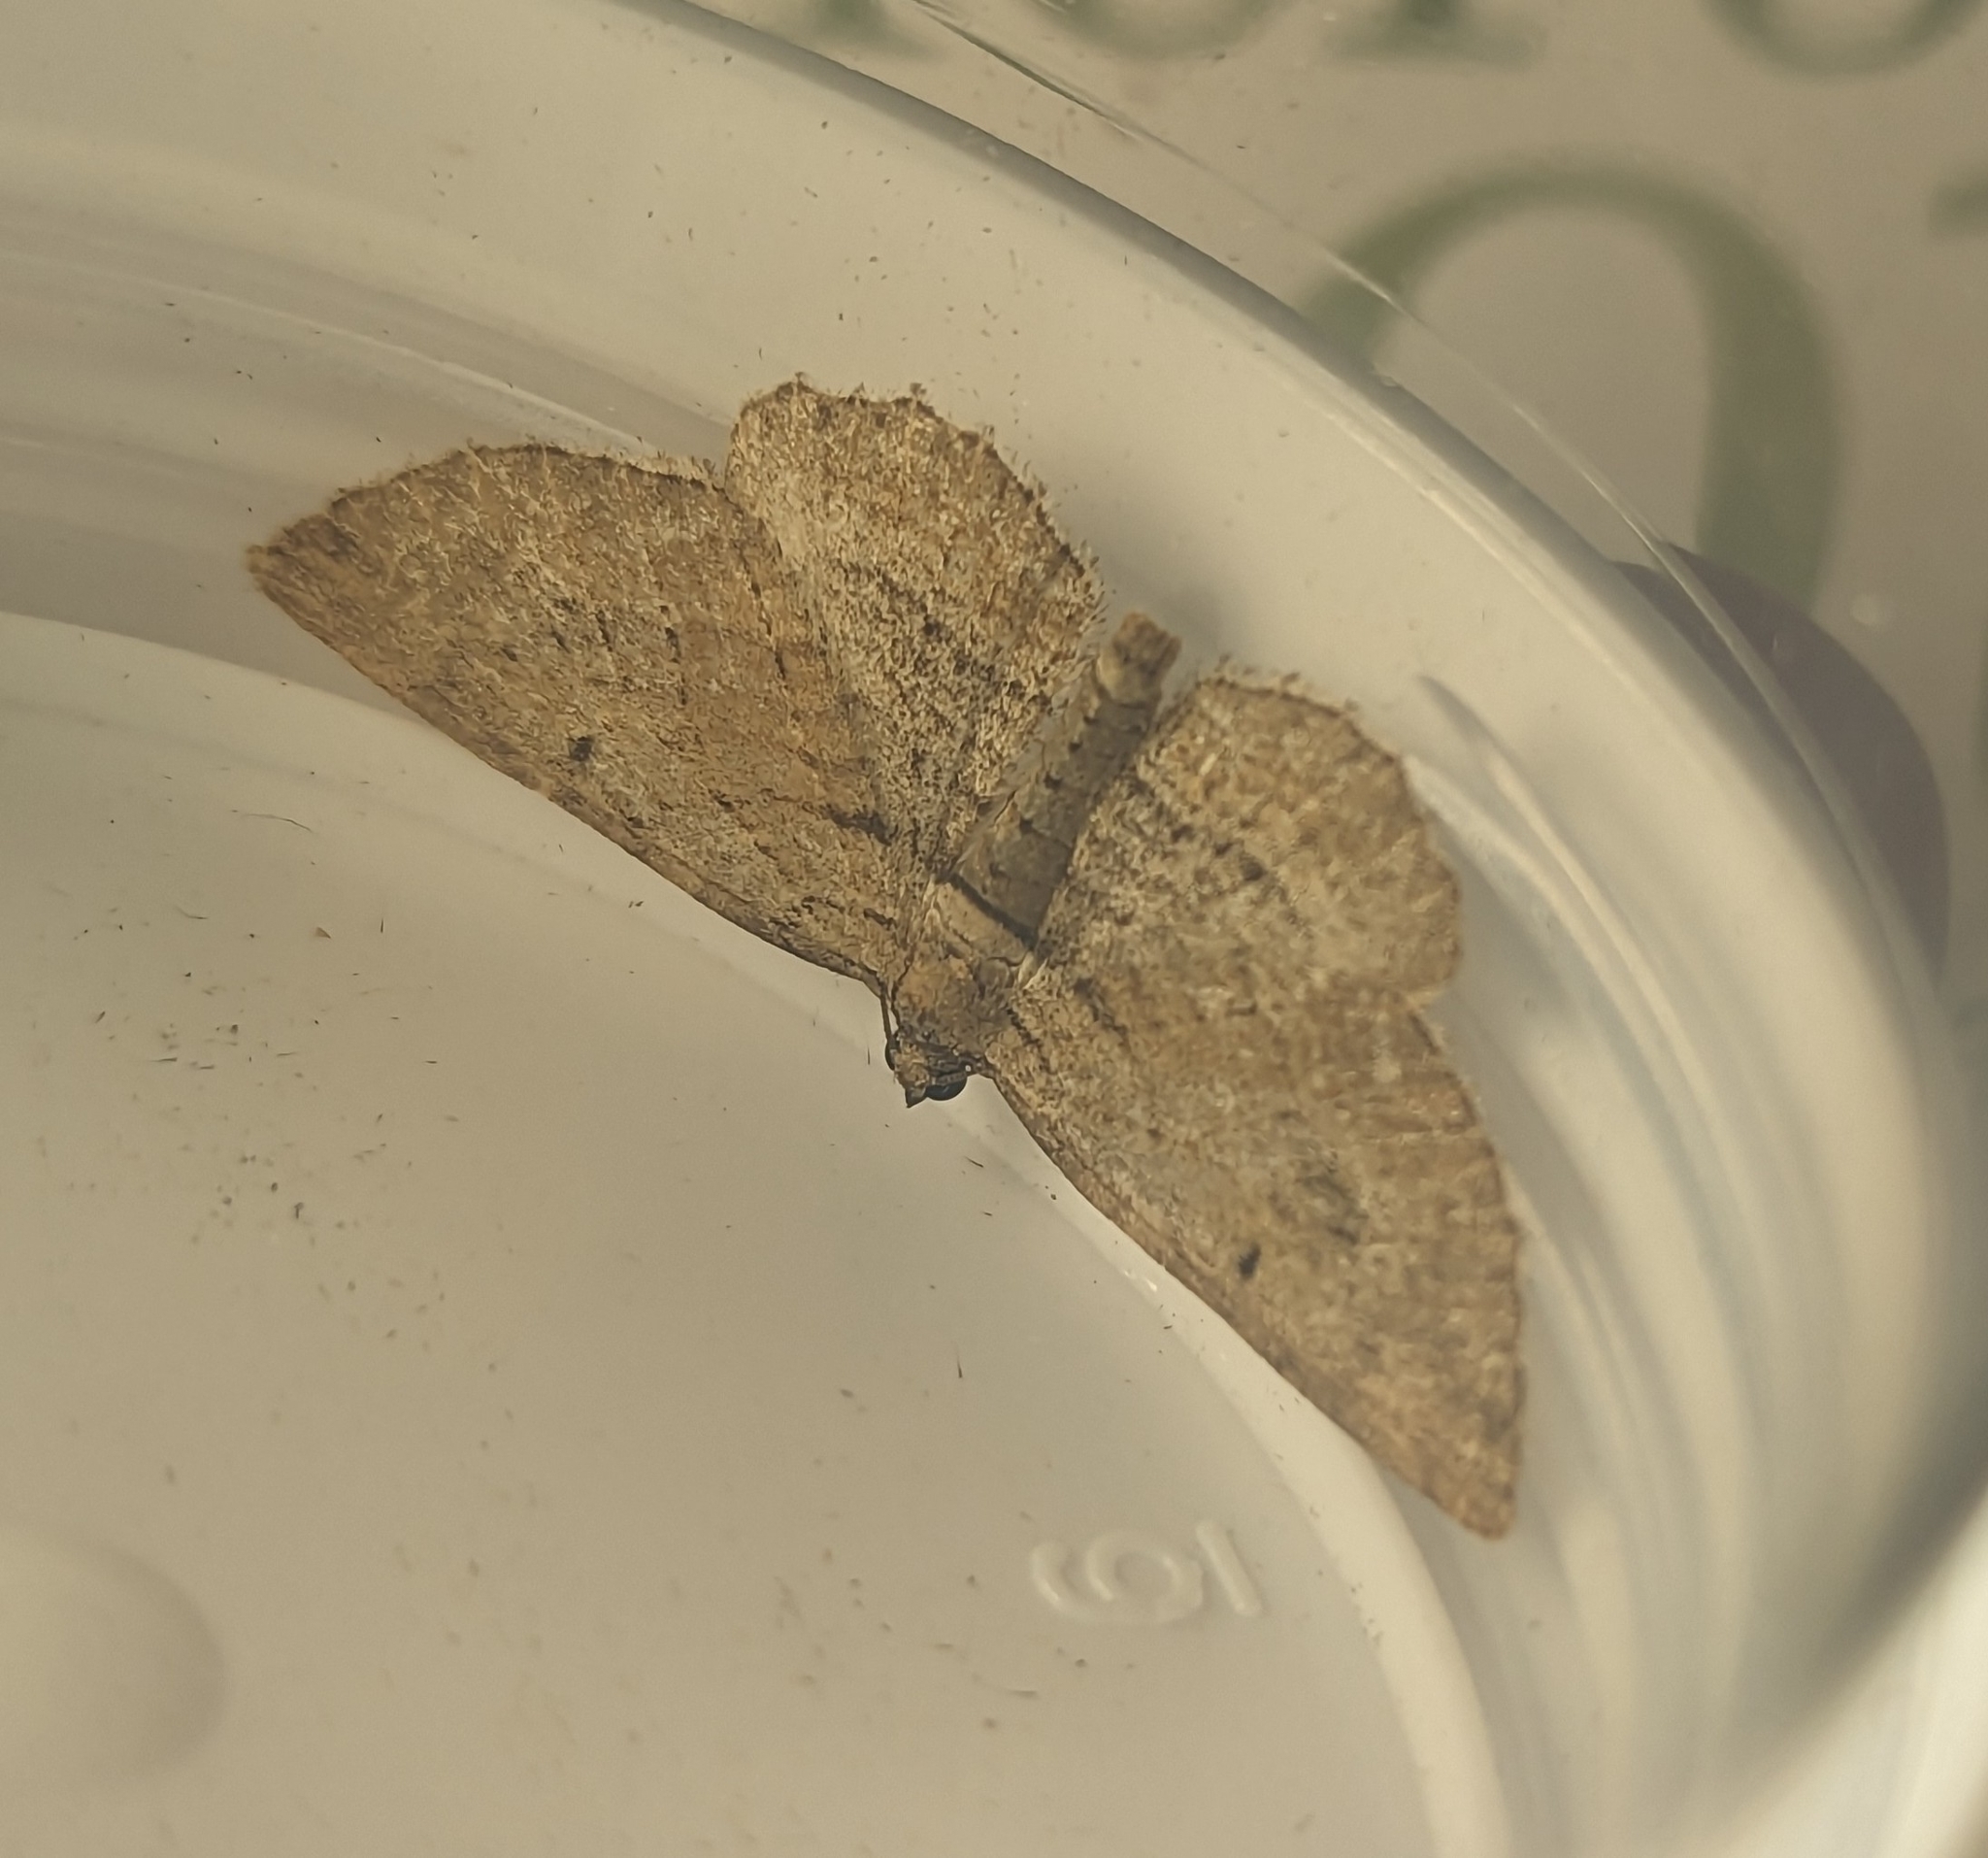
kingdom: Animalia
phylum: Arthropoda
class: Insecta
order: Lepidoptera
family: Geometridae
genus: Horisme
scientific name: Horisme tersata
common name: Fern
